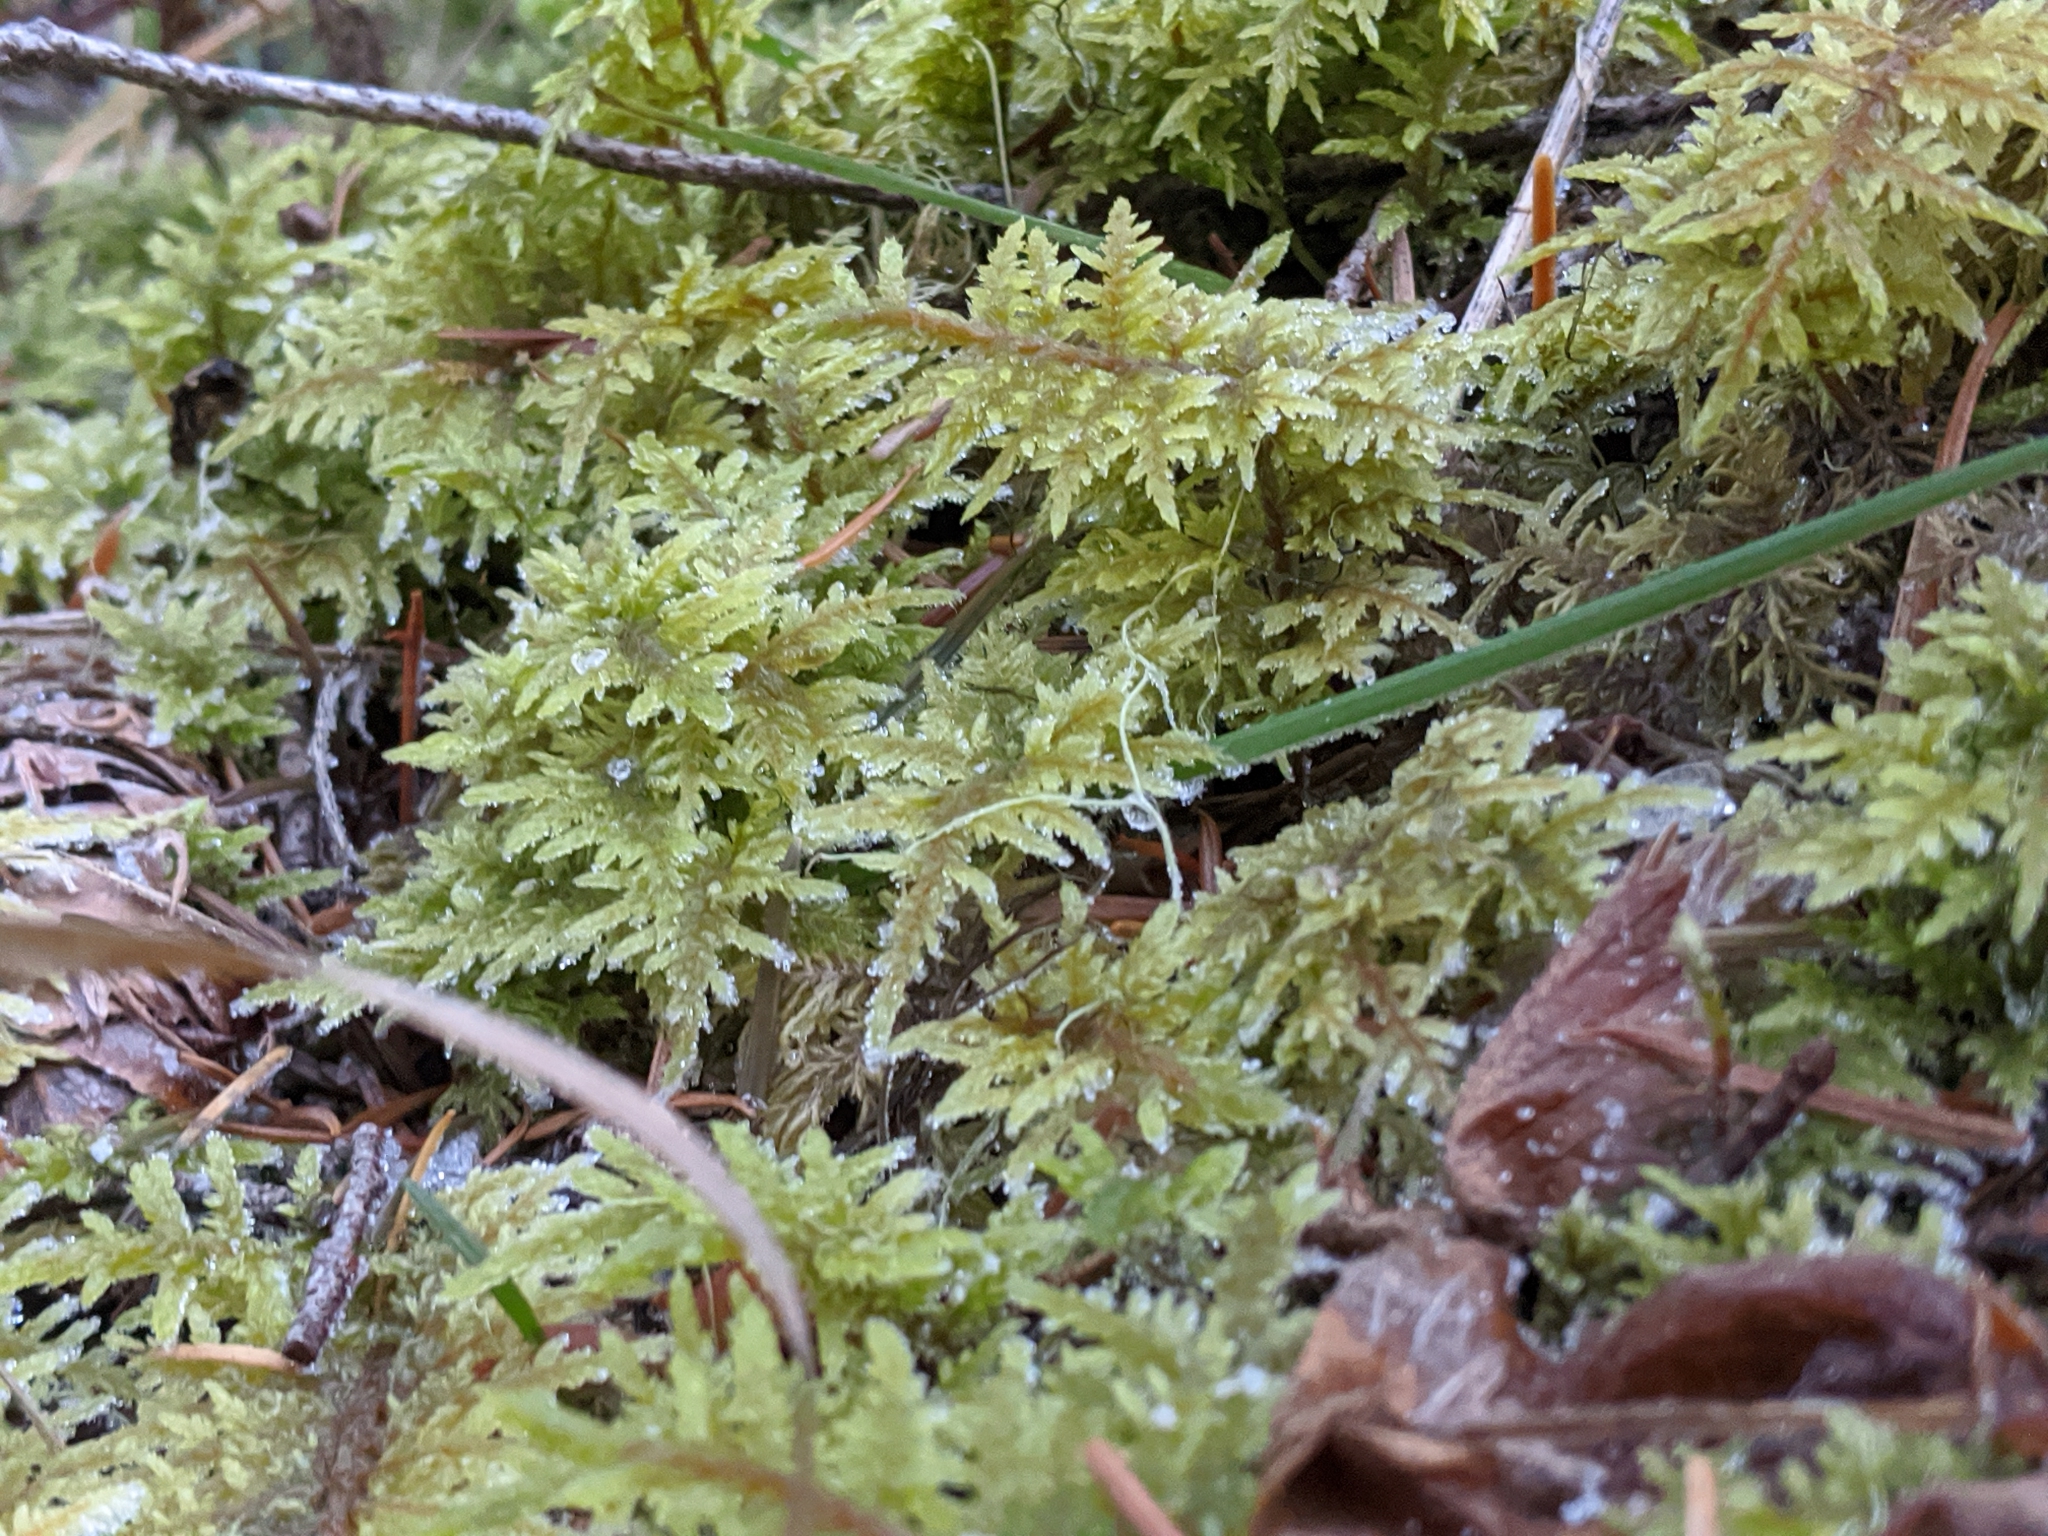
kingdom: Plantae
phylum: Bryophyta
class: Bryopsida
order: Hypnales
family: Hylocomiaceae
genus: Hylocomium
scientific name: Hylocomium splendens
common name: Stairstep moss
